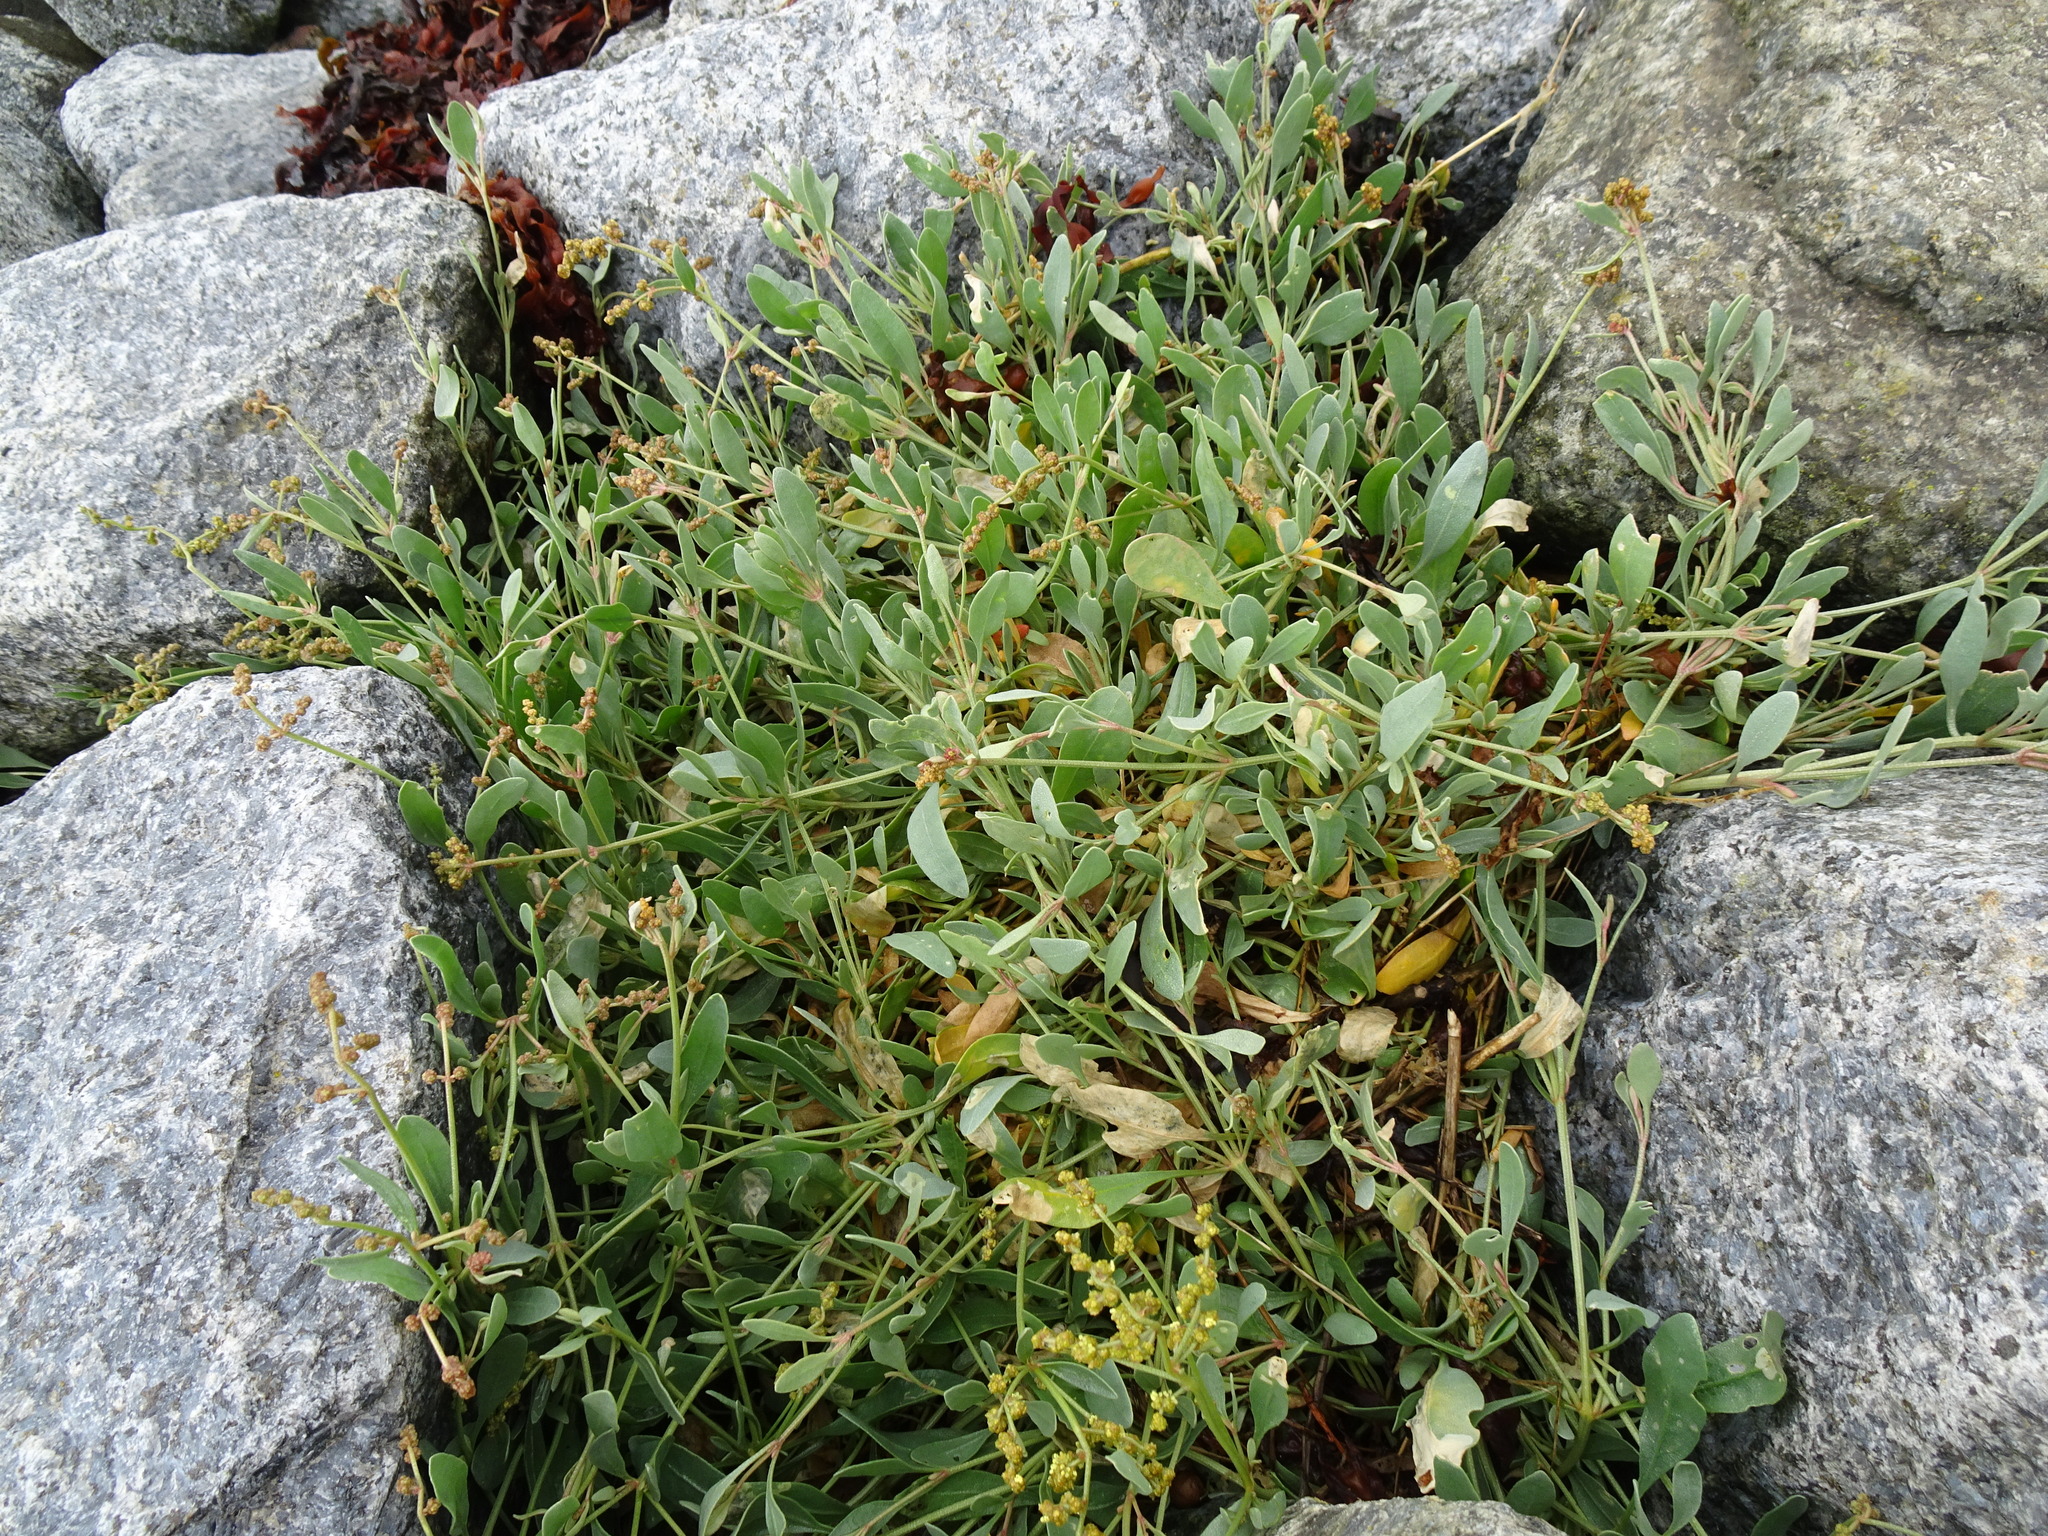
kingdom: Plantae
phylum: Tracheophyta
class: Magnoliopsida
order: Caryophyllales
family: Amaranthaceae
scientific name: Amaranthaceae
